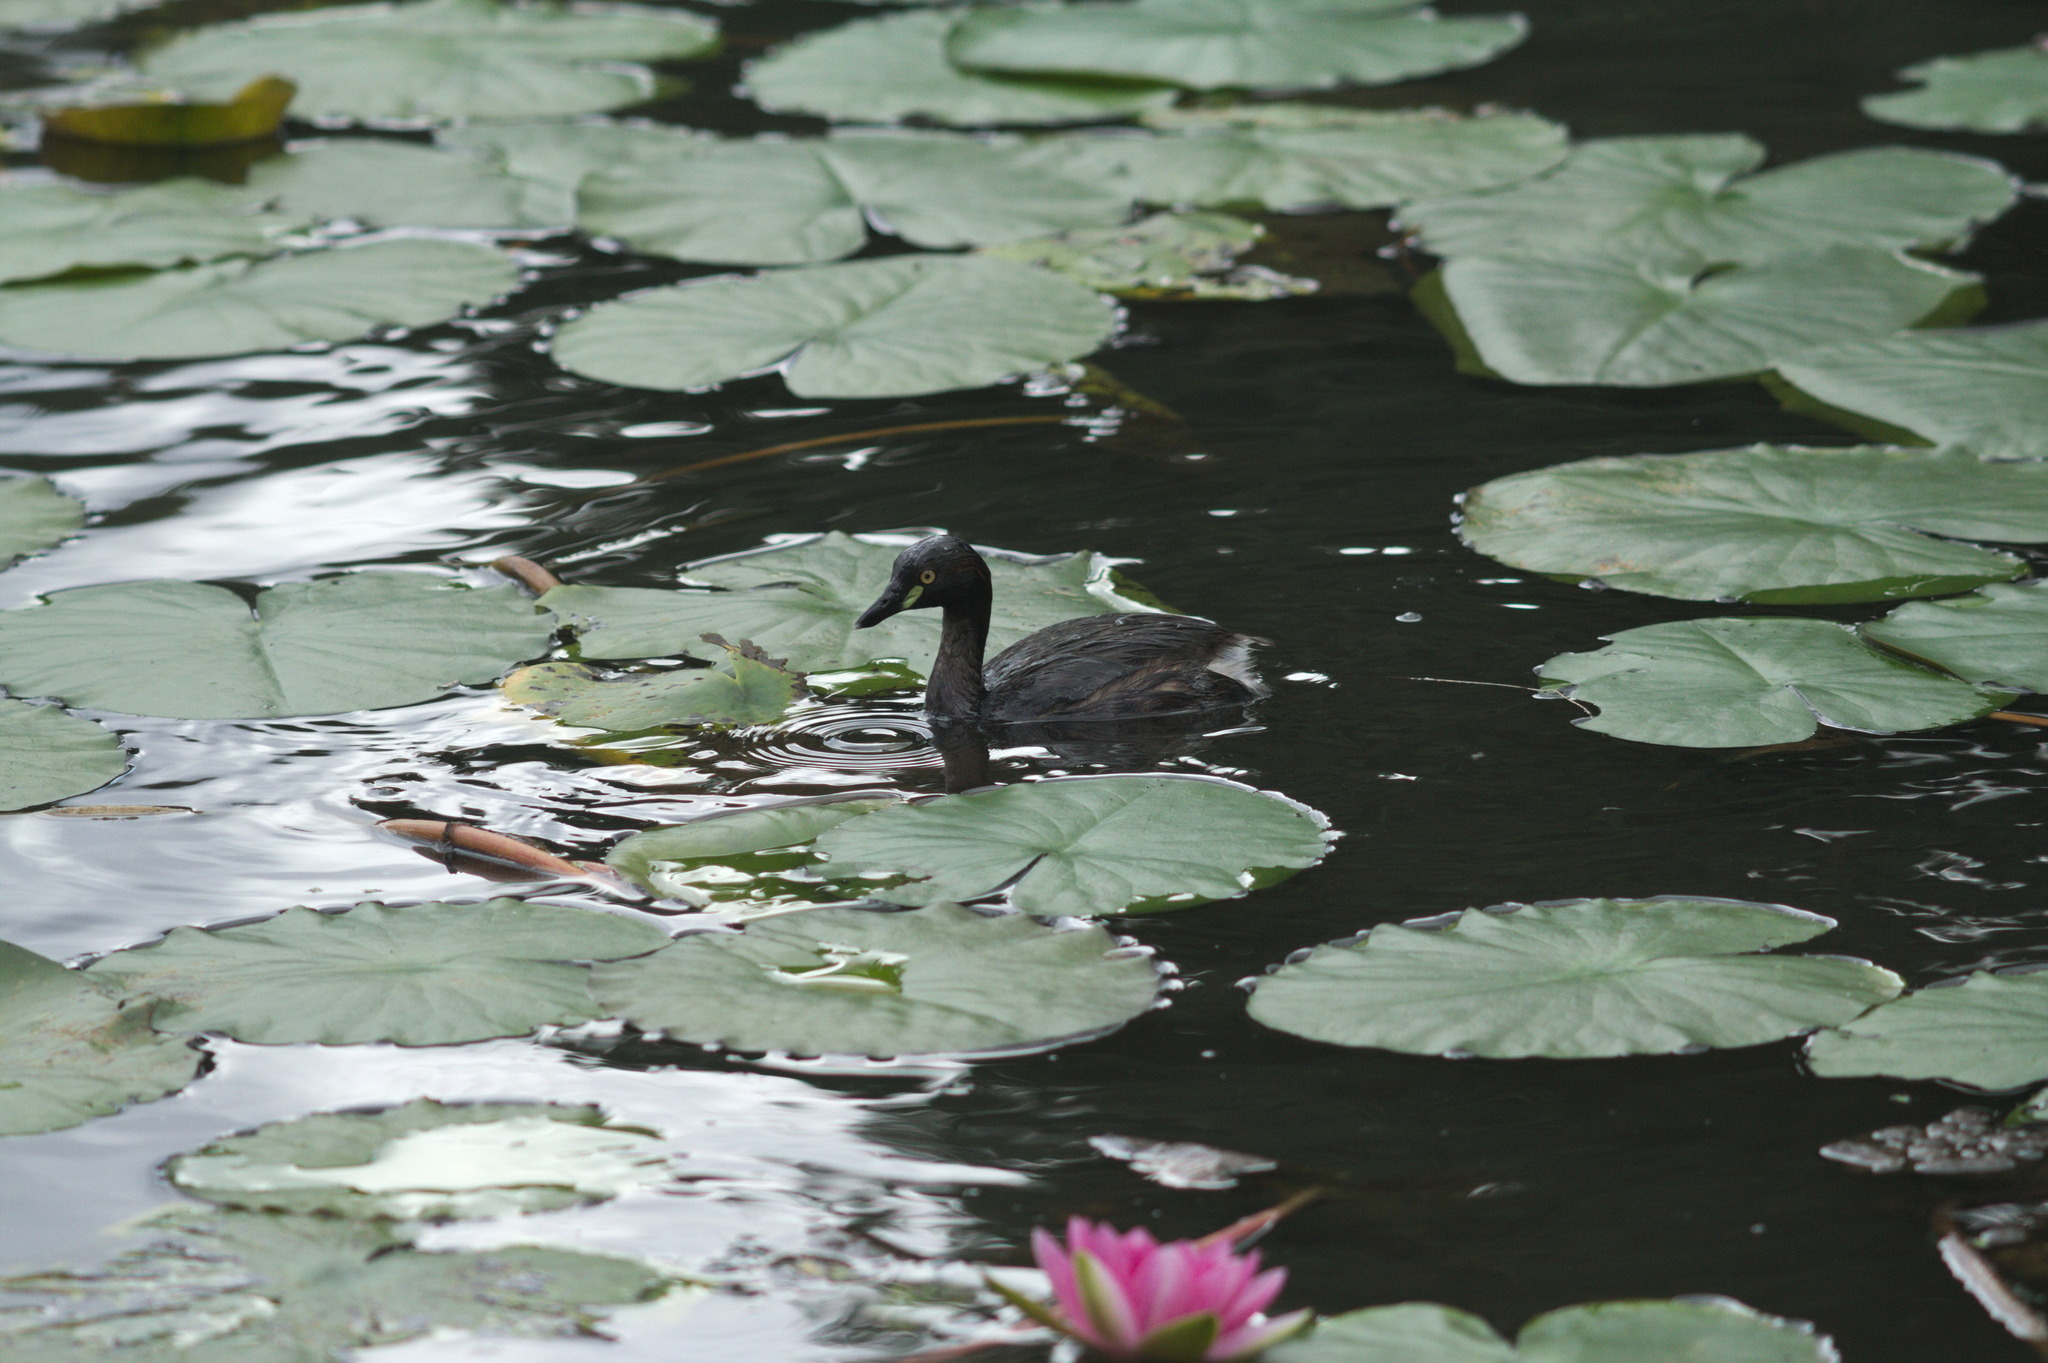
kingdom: Animalia
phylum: Chordata
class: Aves
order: Podicipediformes
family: Podicipedidae
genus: Tachybaptus
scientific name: Tachybaptus novaehollandiae
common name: Australasian grebe
